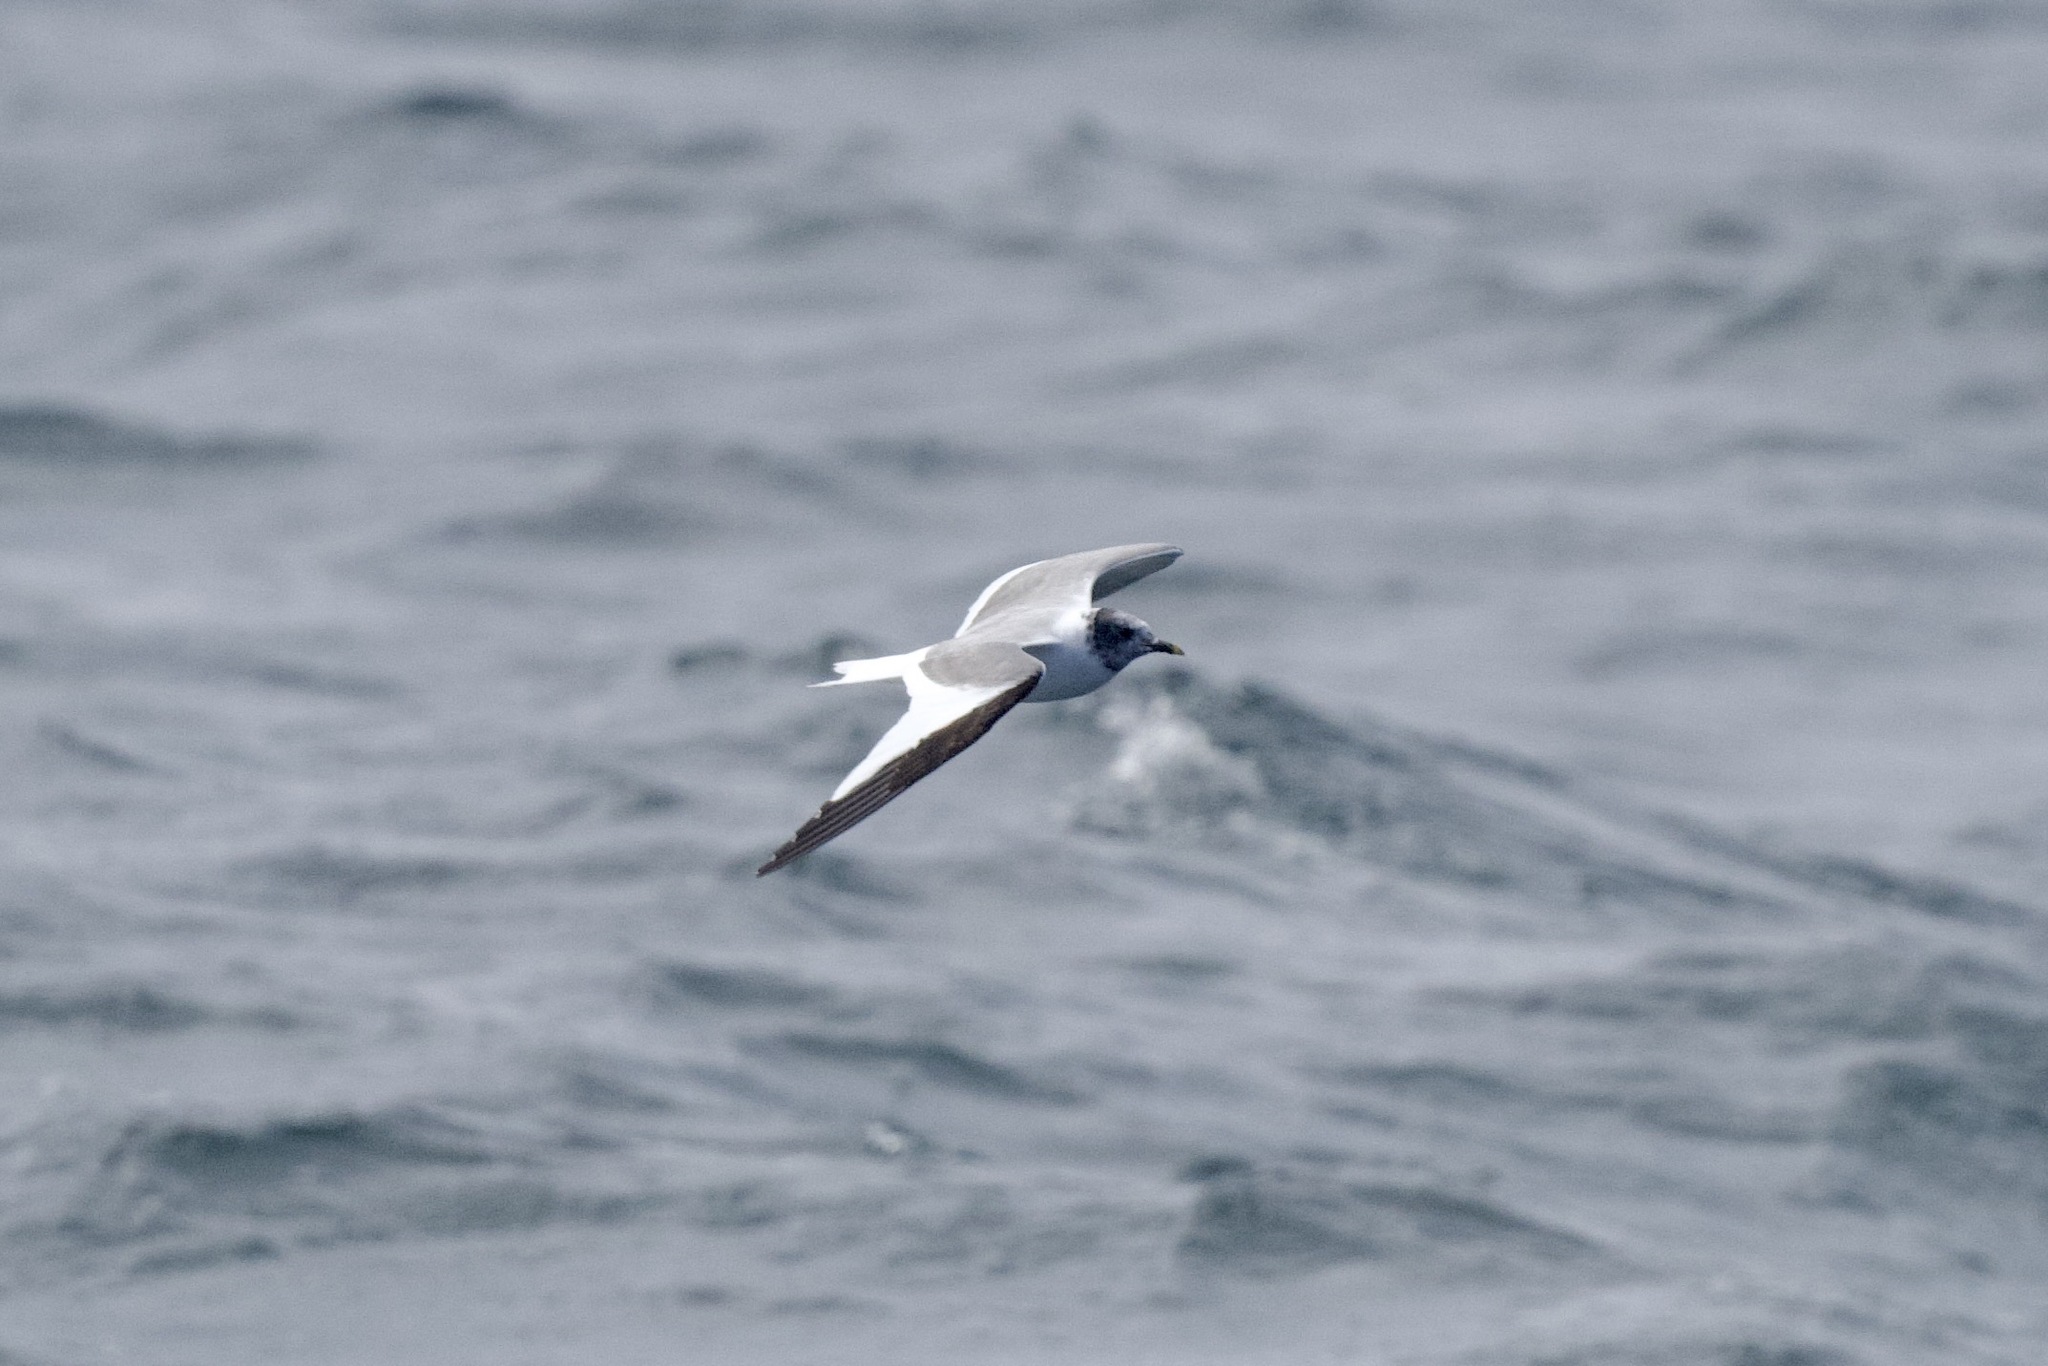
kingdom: Animalia
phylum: Chordata
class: Aves
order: Charadriiformes
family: Laridae
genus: Xema
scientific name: Xema sabini
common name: Sabine's gull
